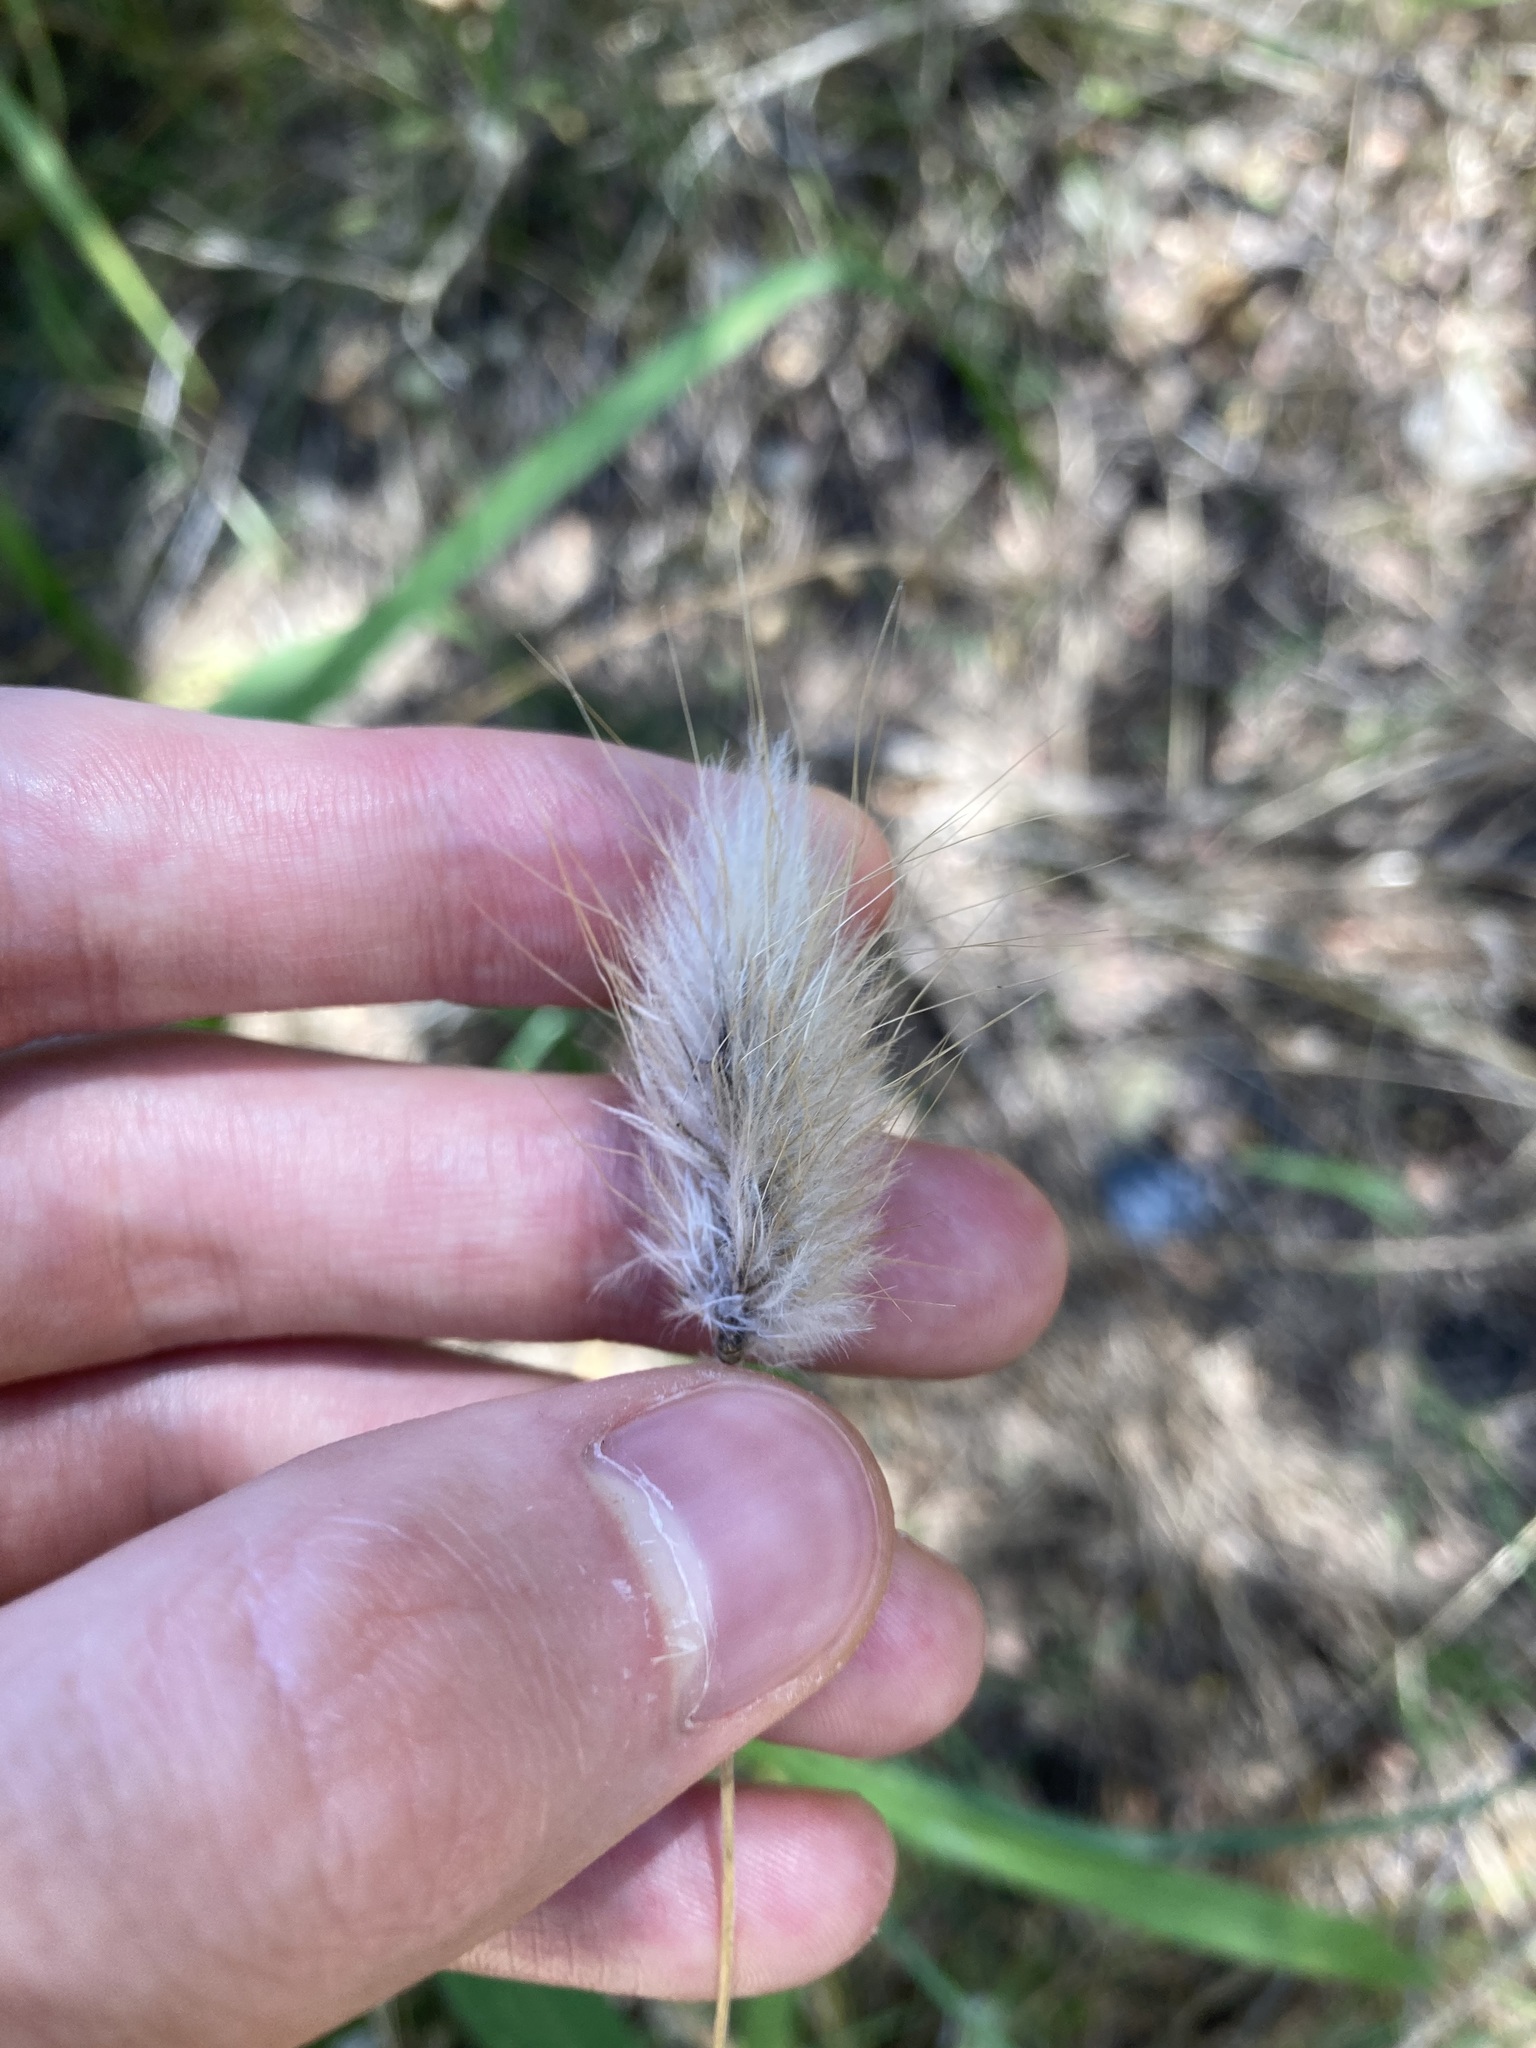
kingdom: Plantae
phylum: Tracheophyta
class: Liliopsida
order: Poales
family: Poaceae
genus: Lagurus
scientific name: Lagurus ovatus
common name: Hare's-tail
